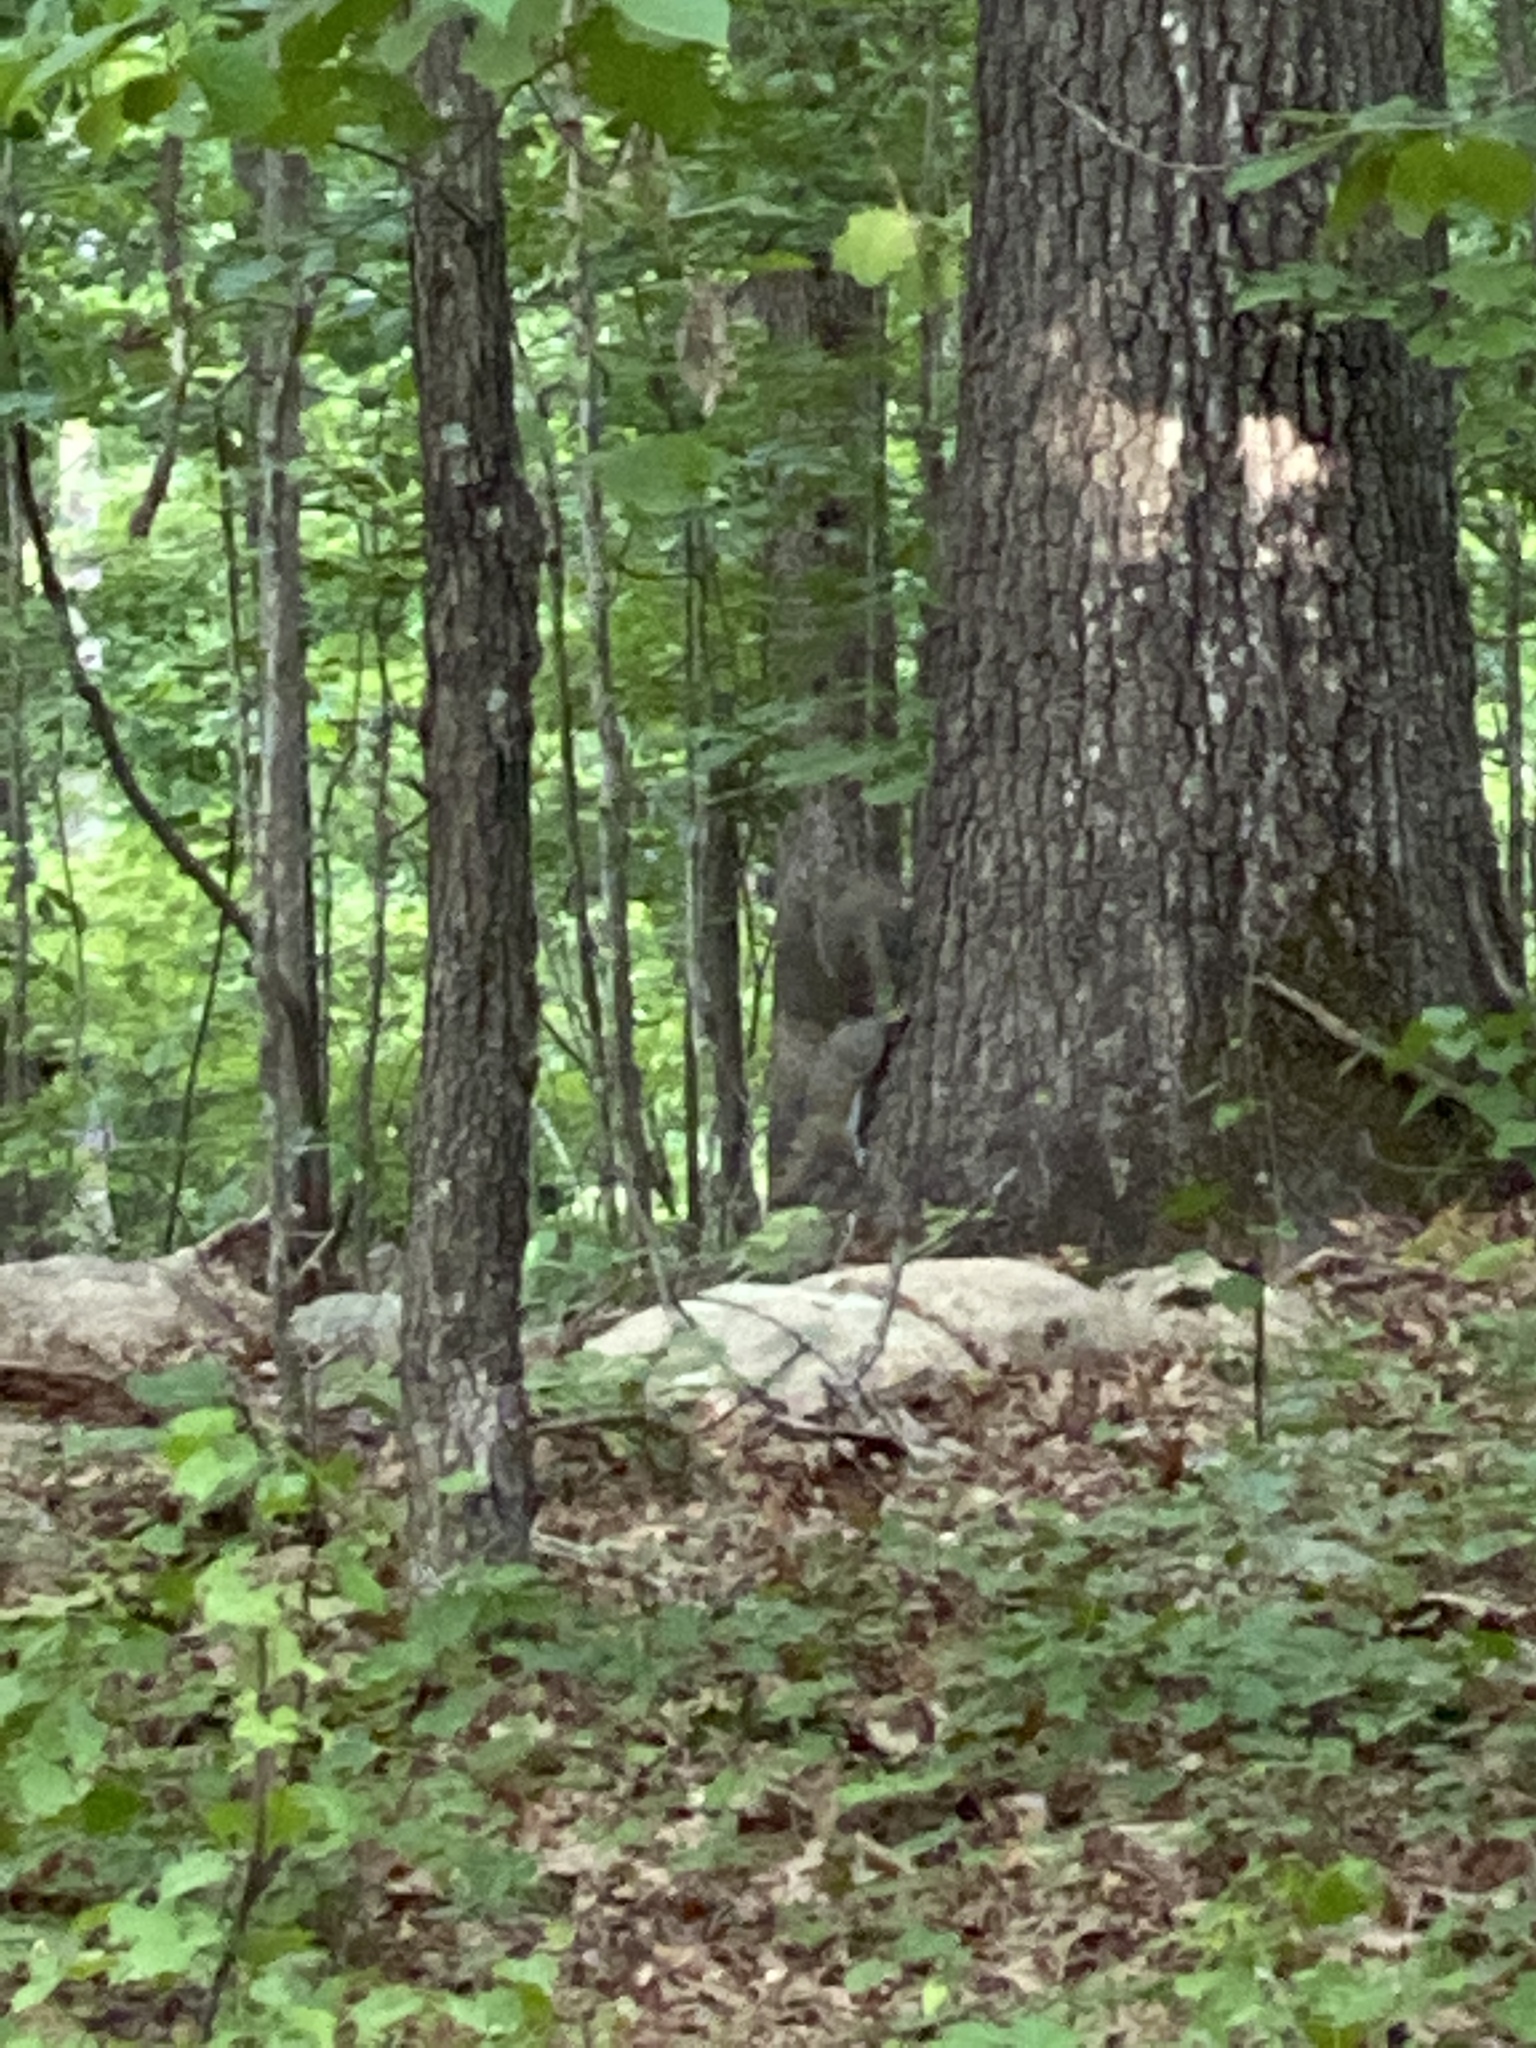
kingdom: Animalia
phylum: Chordata
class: Mammalia
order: Rodentia
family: Sciuridae
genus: Sciurus
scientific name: Sciurus carolinensis
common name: Eastern gray squirrel
